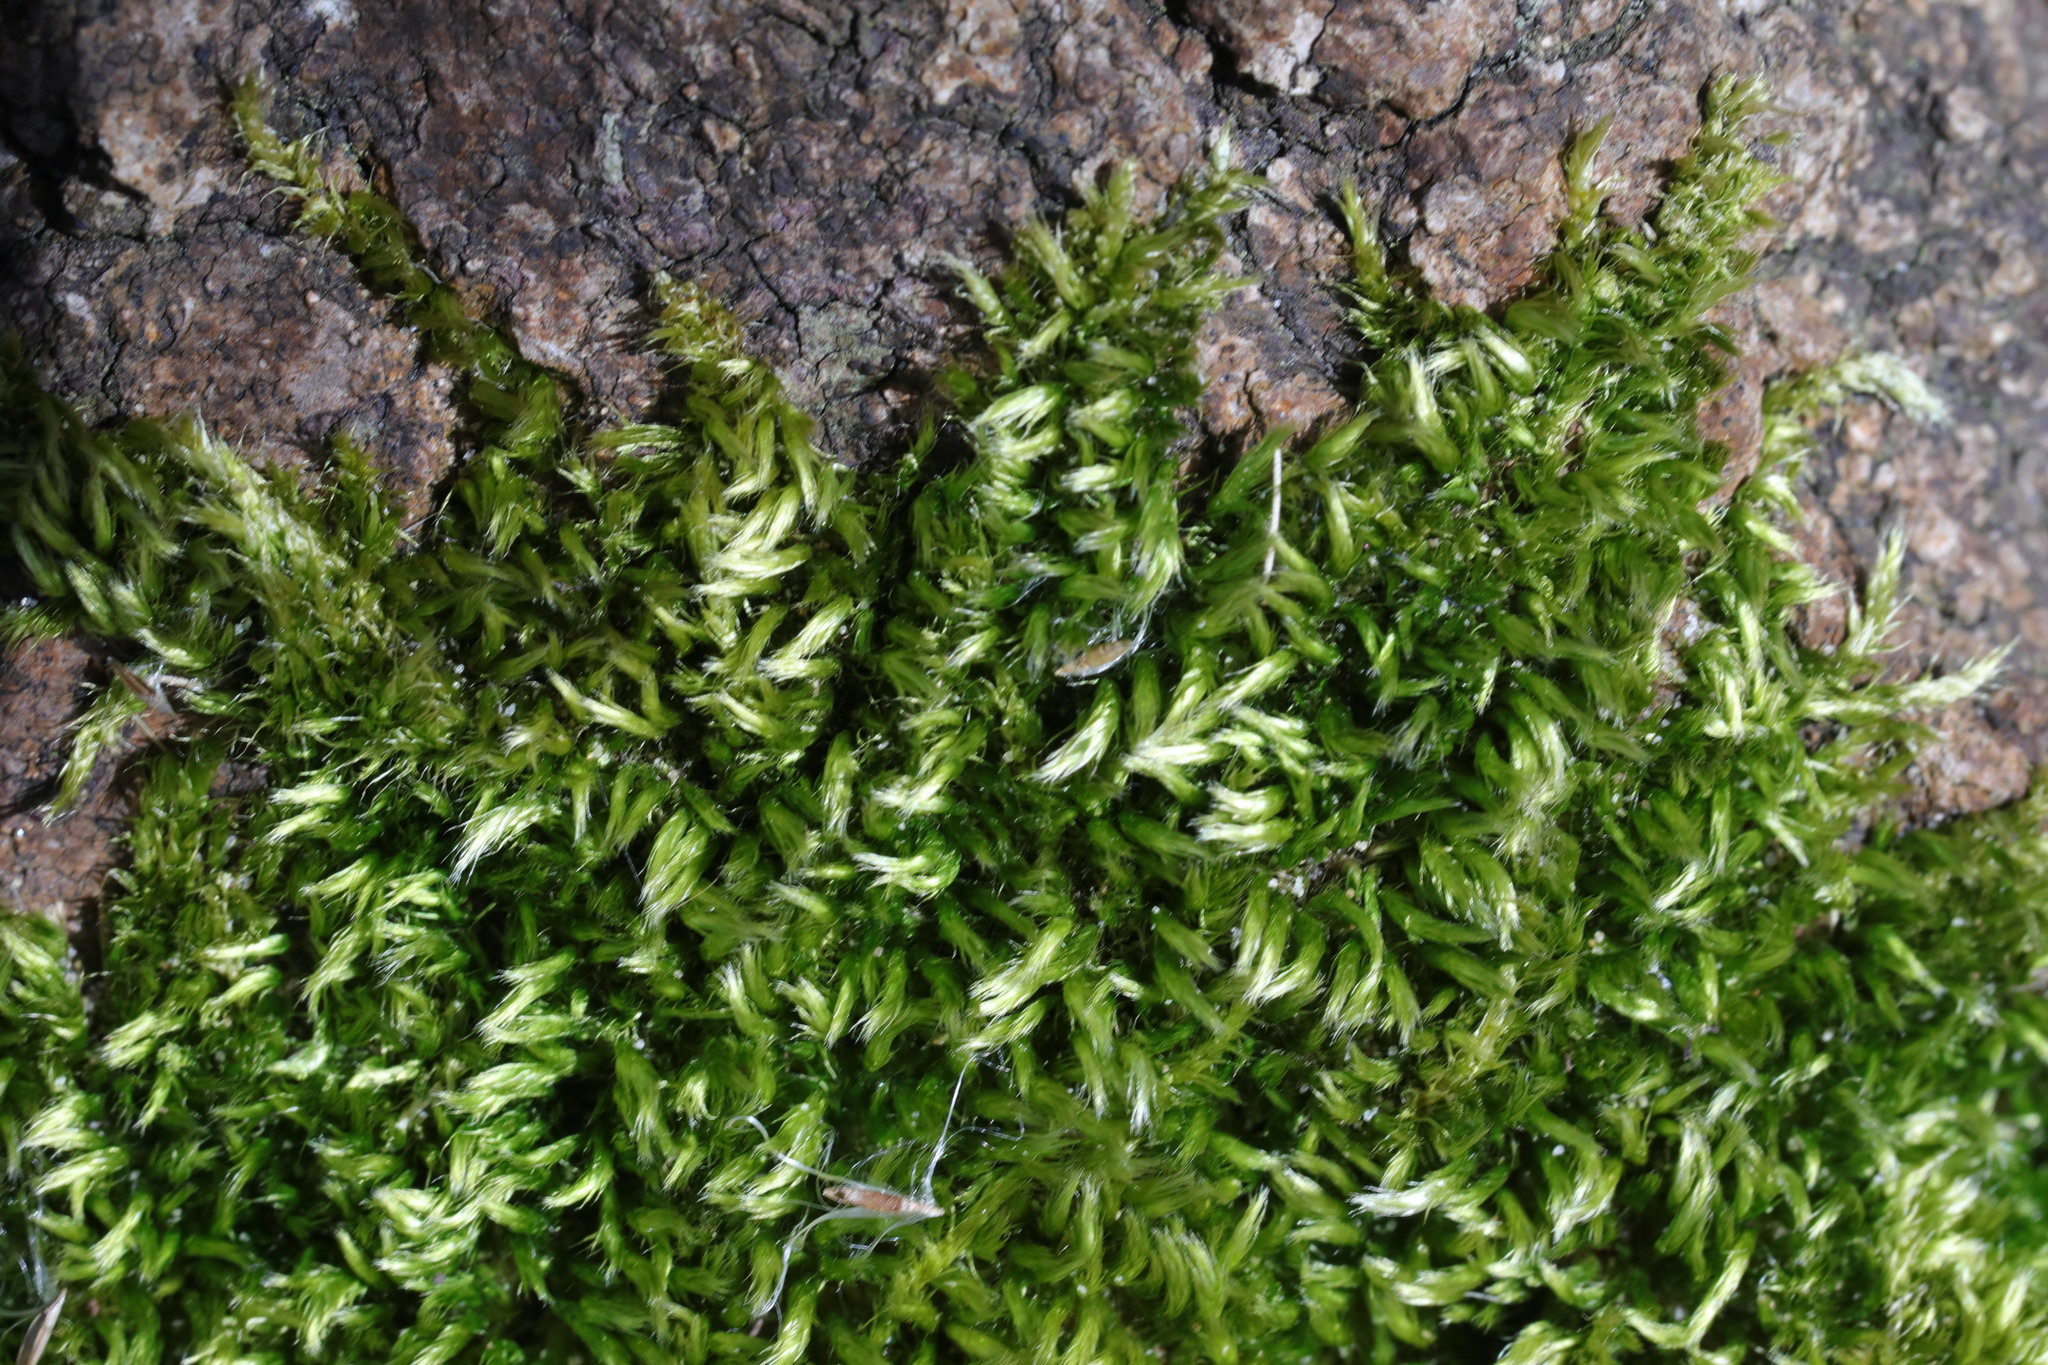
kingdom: Plantae
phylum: Bryophyta
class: Bryopsida
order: Hypnales
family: Brachytheciaceae
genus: Homalothecium
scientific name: Homalothecium sericeum
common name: Silky wall feather-moss
